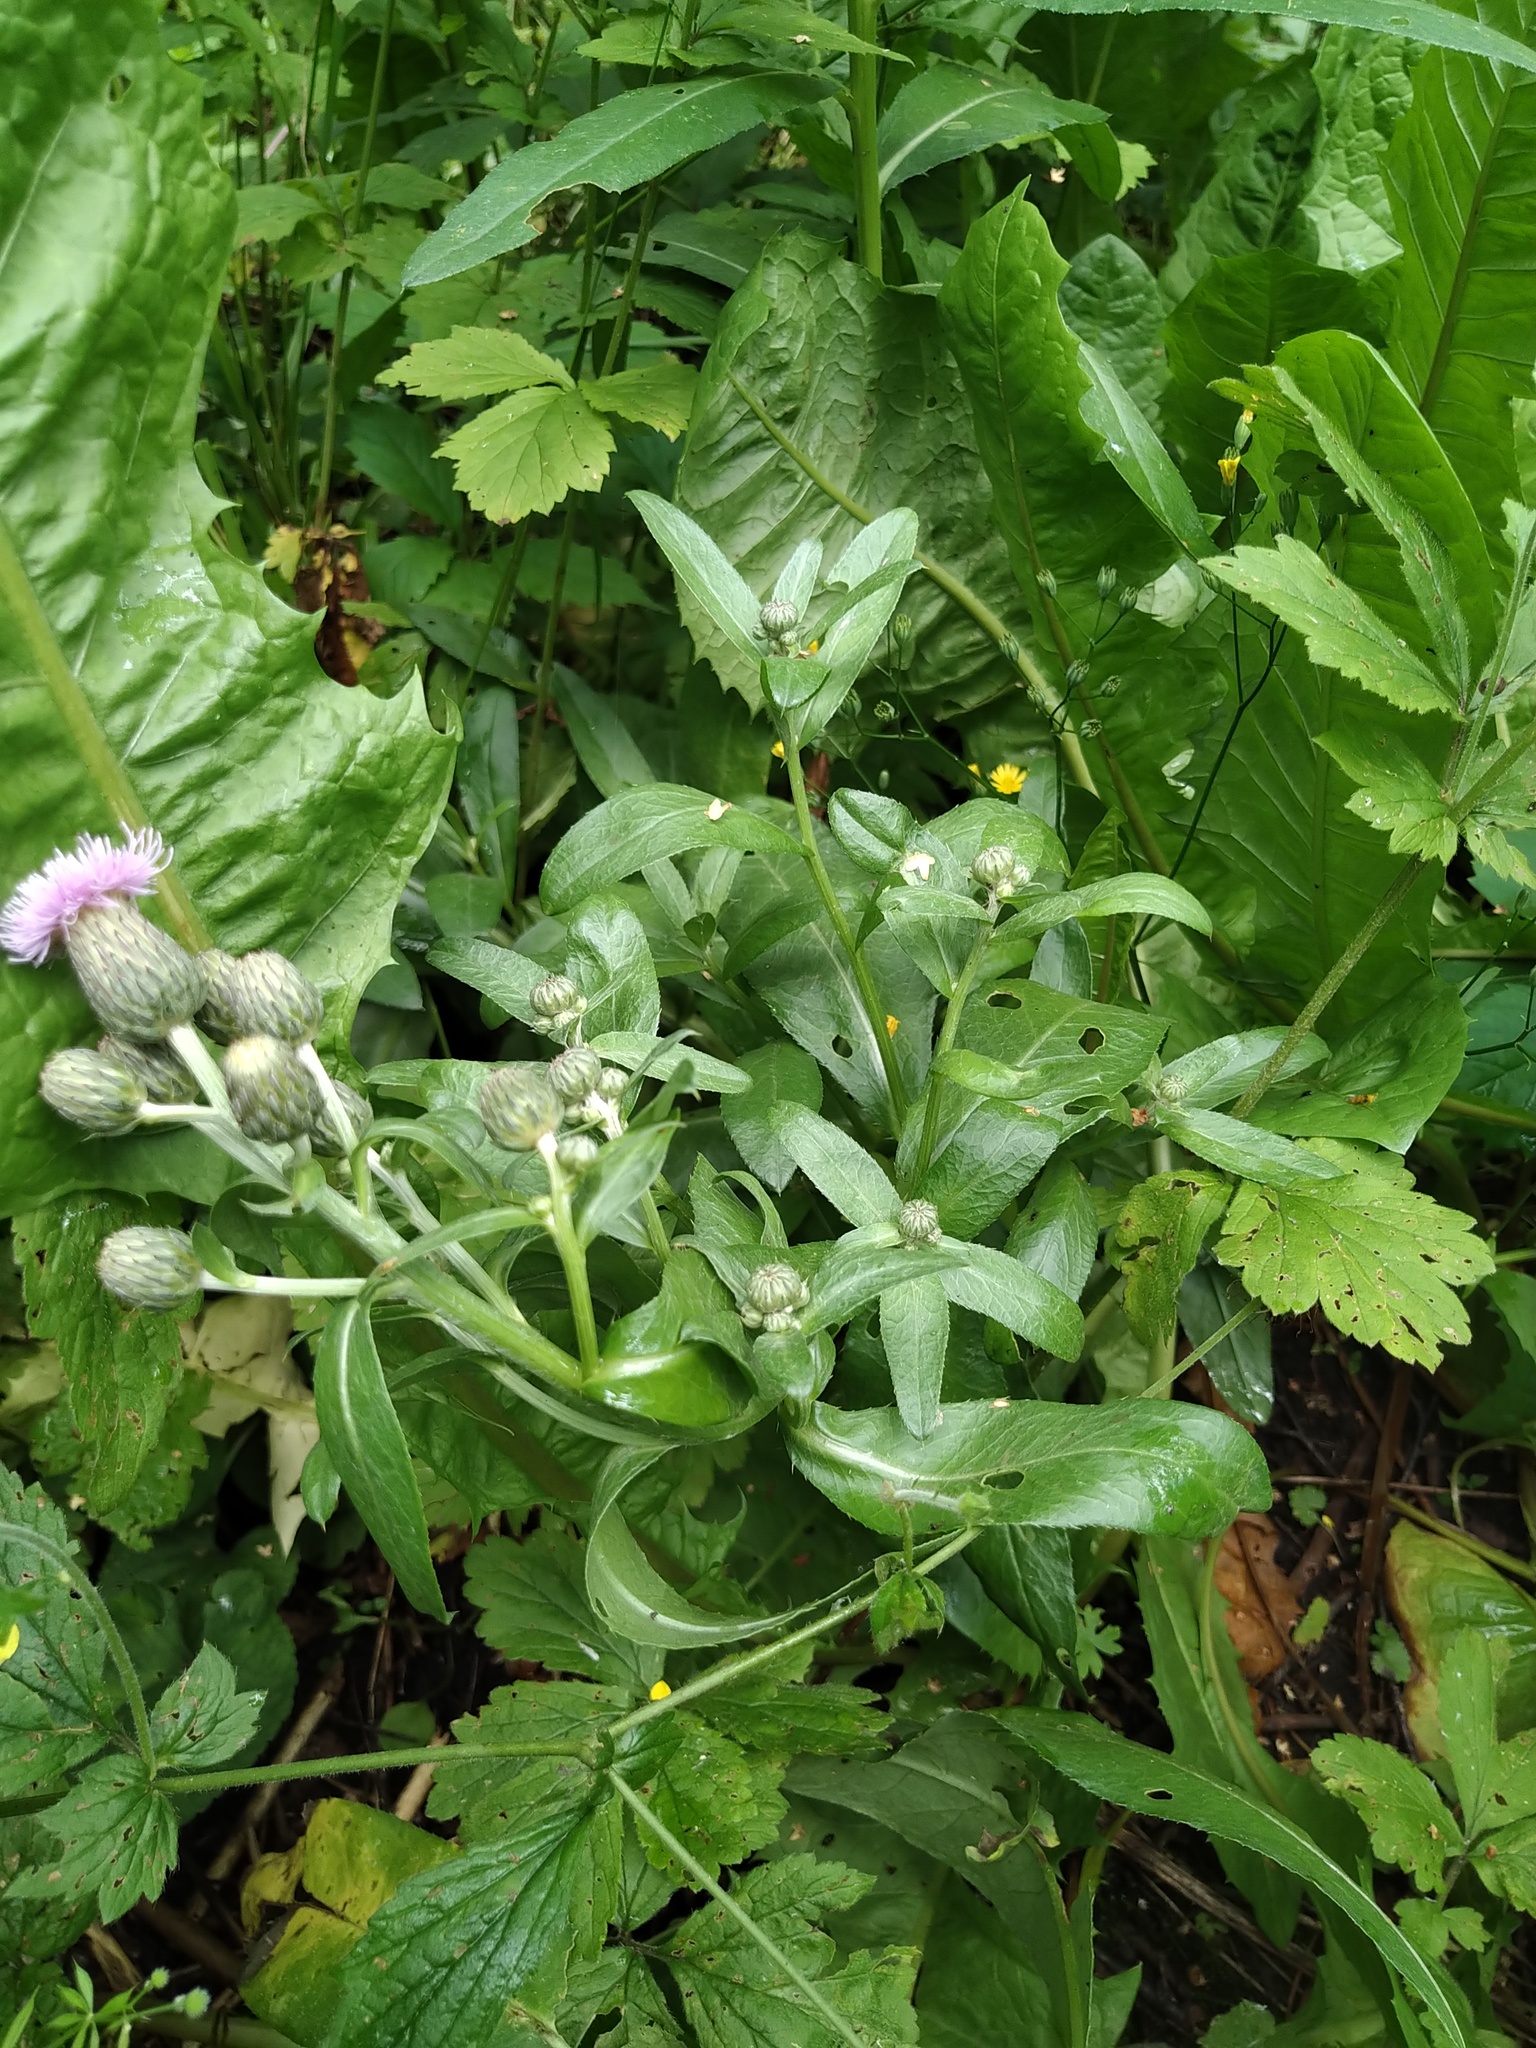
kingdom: Plantae
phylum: Tracheophyta
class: Magnoliopsida
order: Asterales
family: Asteraceae
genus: Cirsium
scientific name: Cirsium arvense
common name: Creeping thistle
